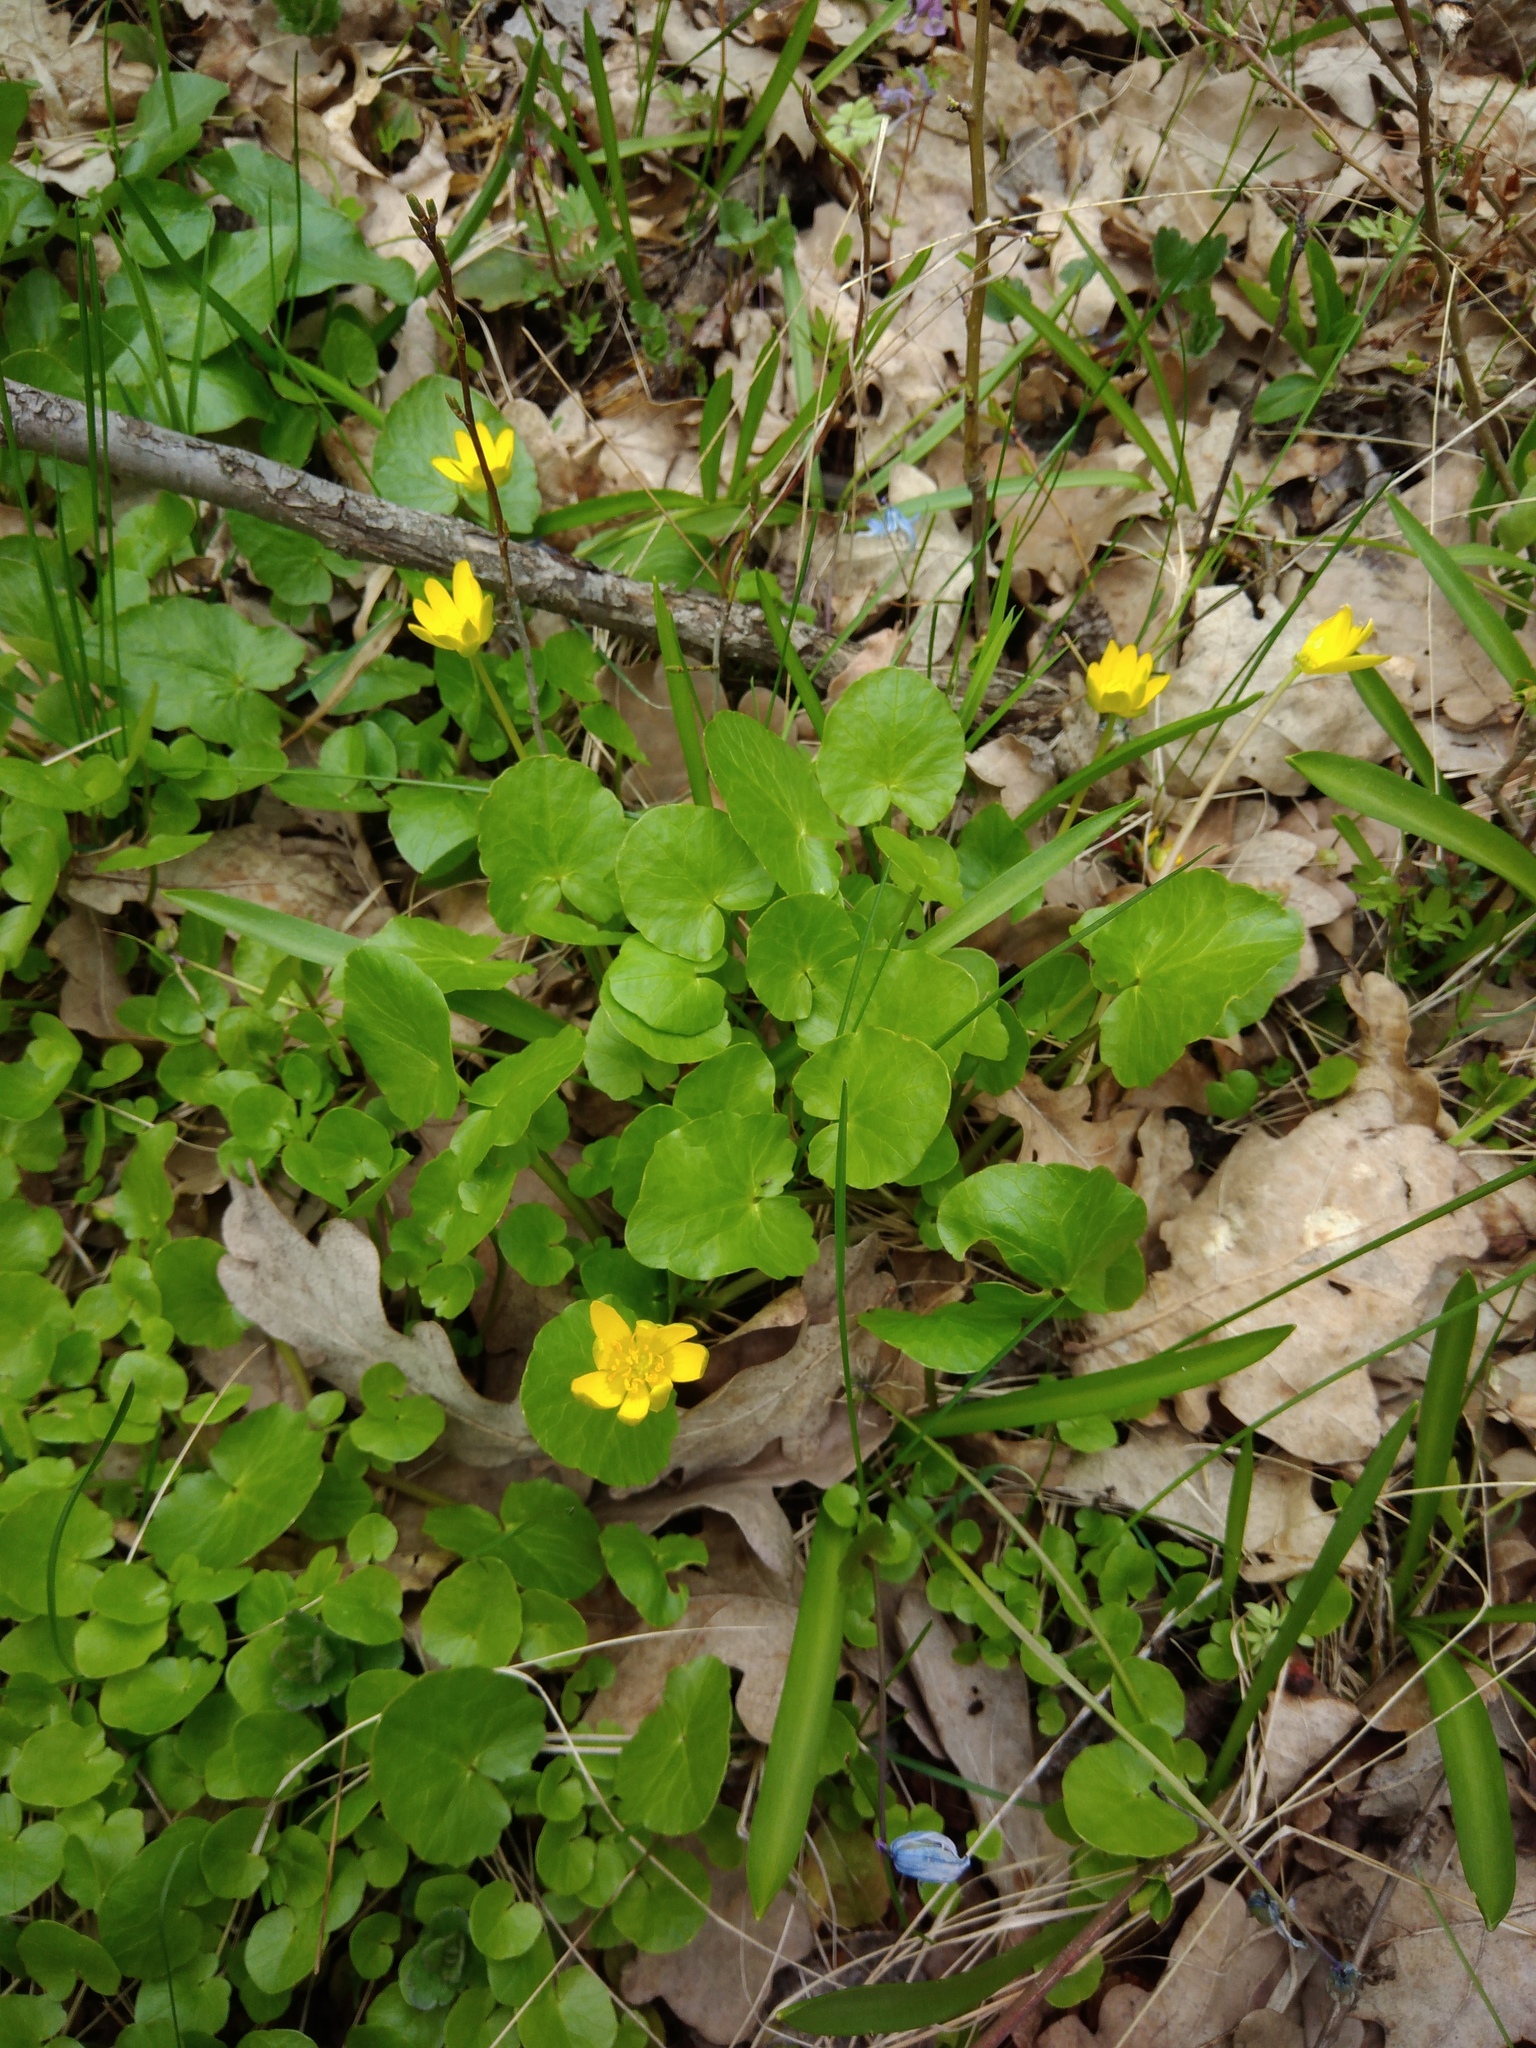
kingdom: Plantae
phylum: Tracheophyta
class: Magnoliopsida
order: Ranunculales
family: Ranunculaceae
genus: Ficaria
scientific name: Ficaria verna
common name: Lesser celandine
